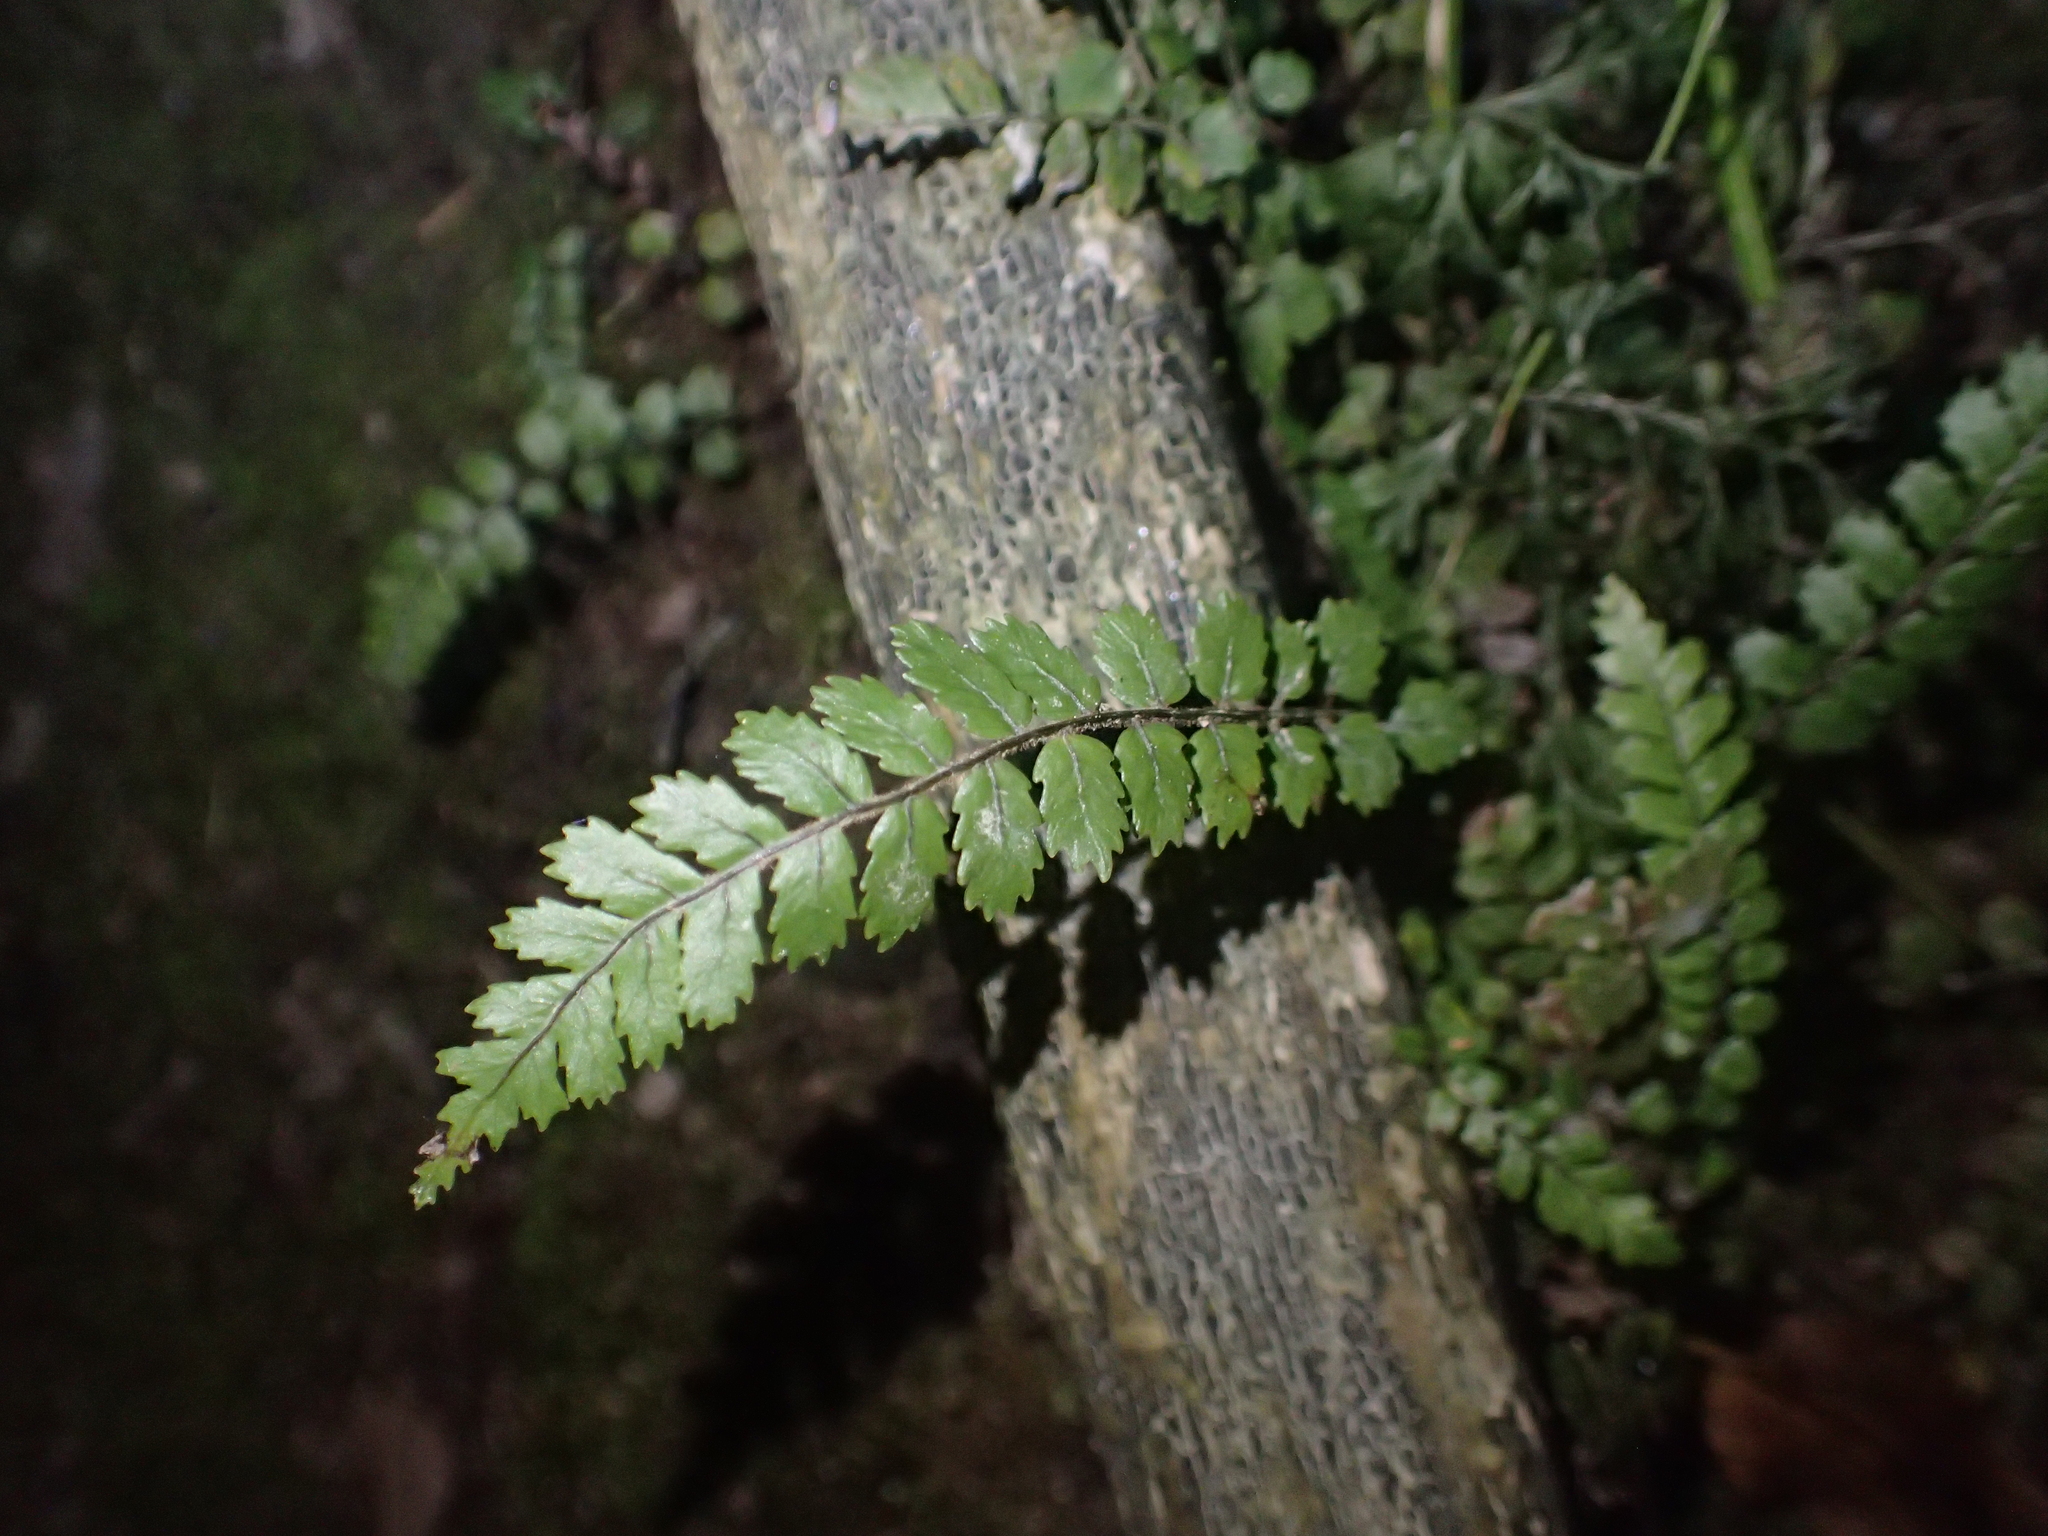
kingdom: Plantae
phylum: Tracheophyta
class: Polypodiopsida
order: Polypodiales
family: Blechnaceae
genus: Icarus
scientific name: Icarus filiformis
